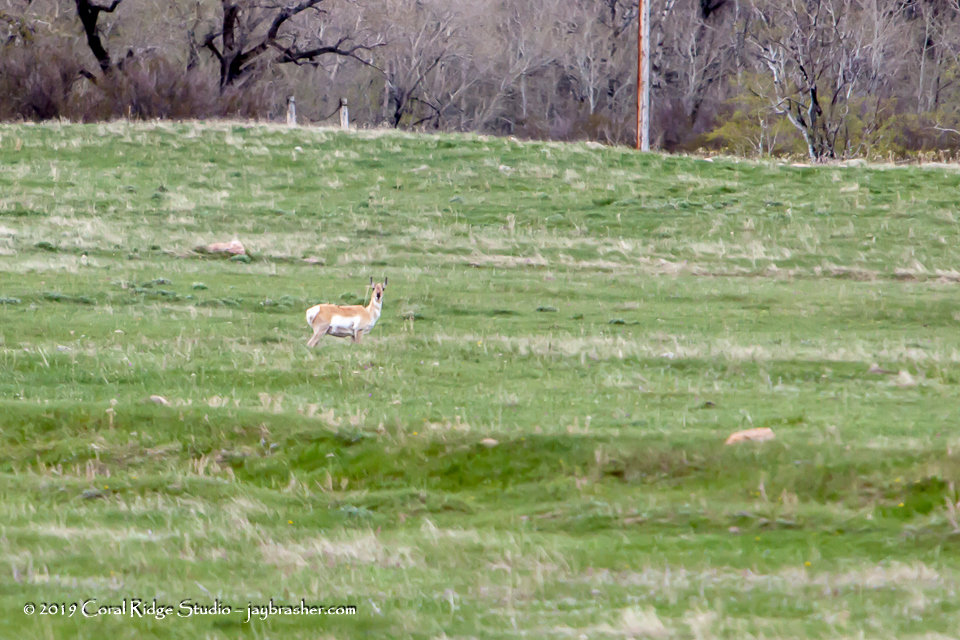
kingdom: Animalia
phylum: Chordata
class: Mammalia
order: Artiodactyla
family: Antilocapridae
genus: Antilocapra
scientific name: Antilocapra americana
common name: Pronghorn
